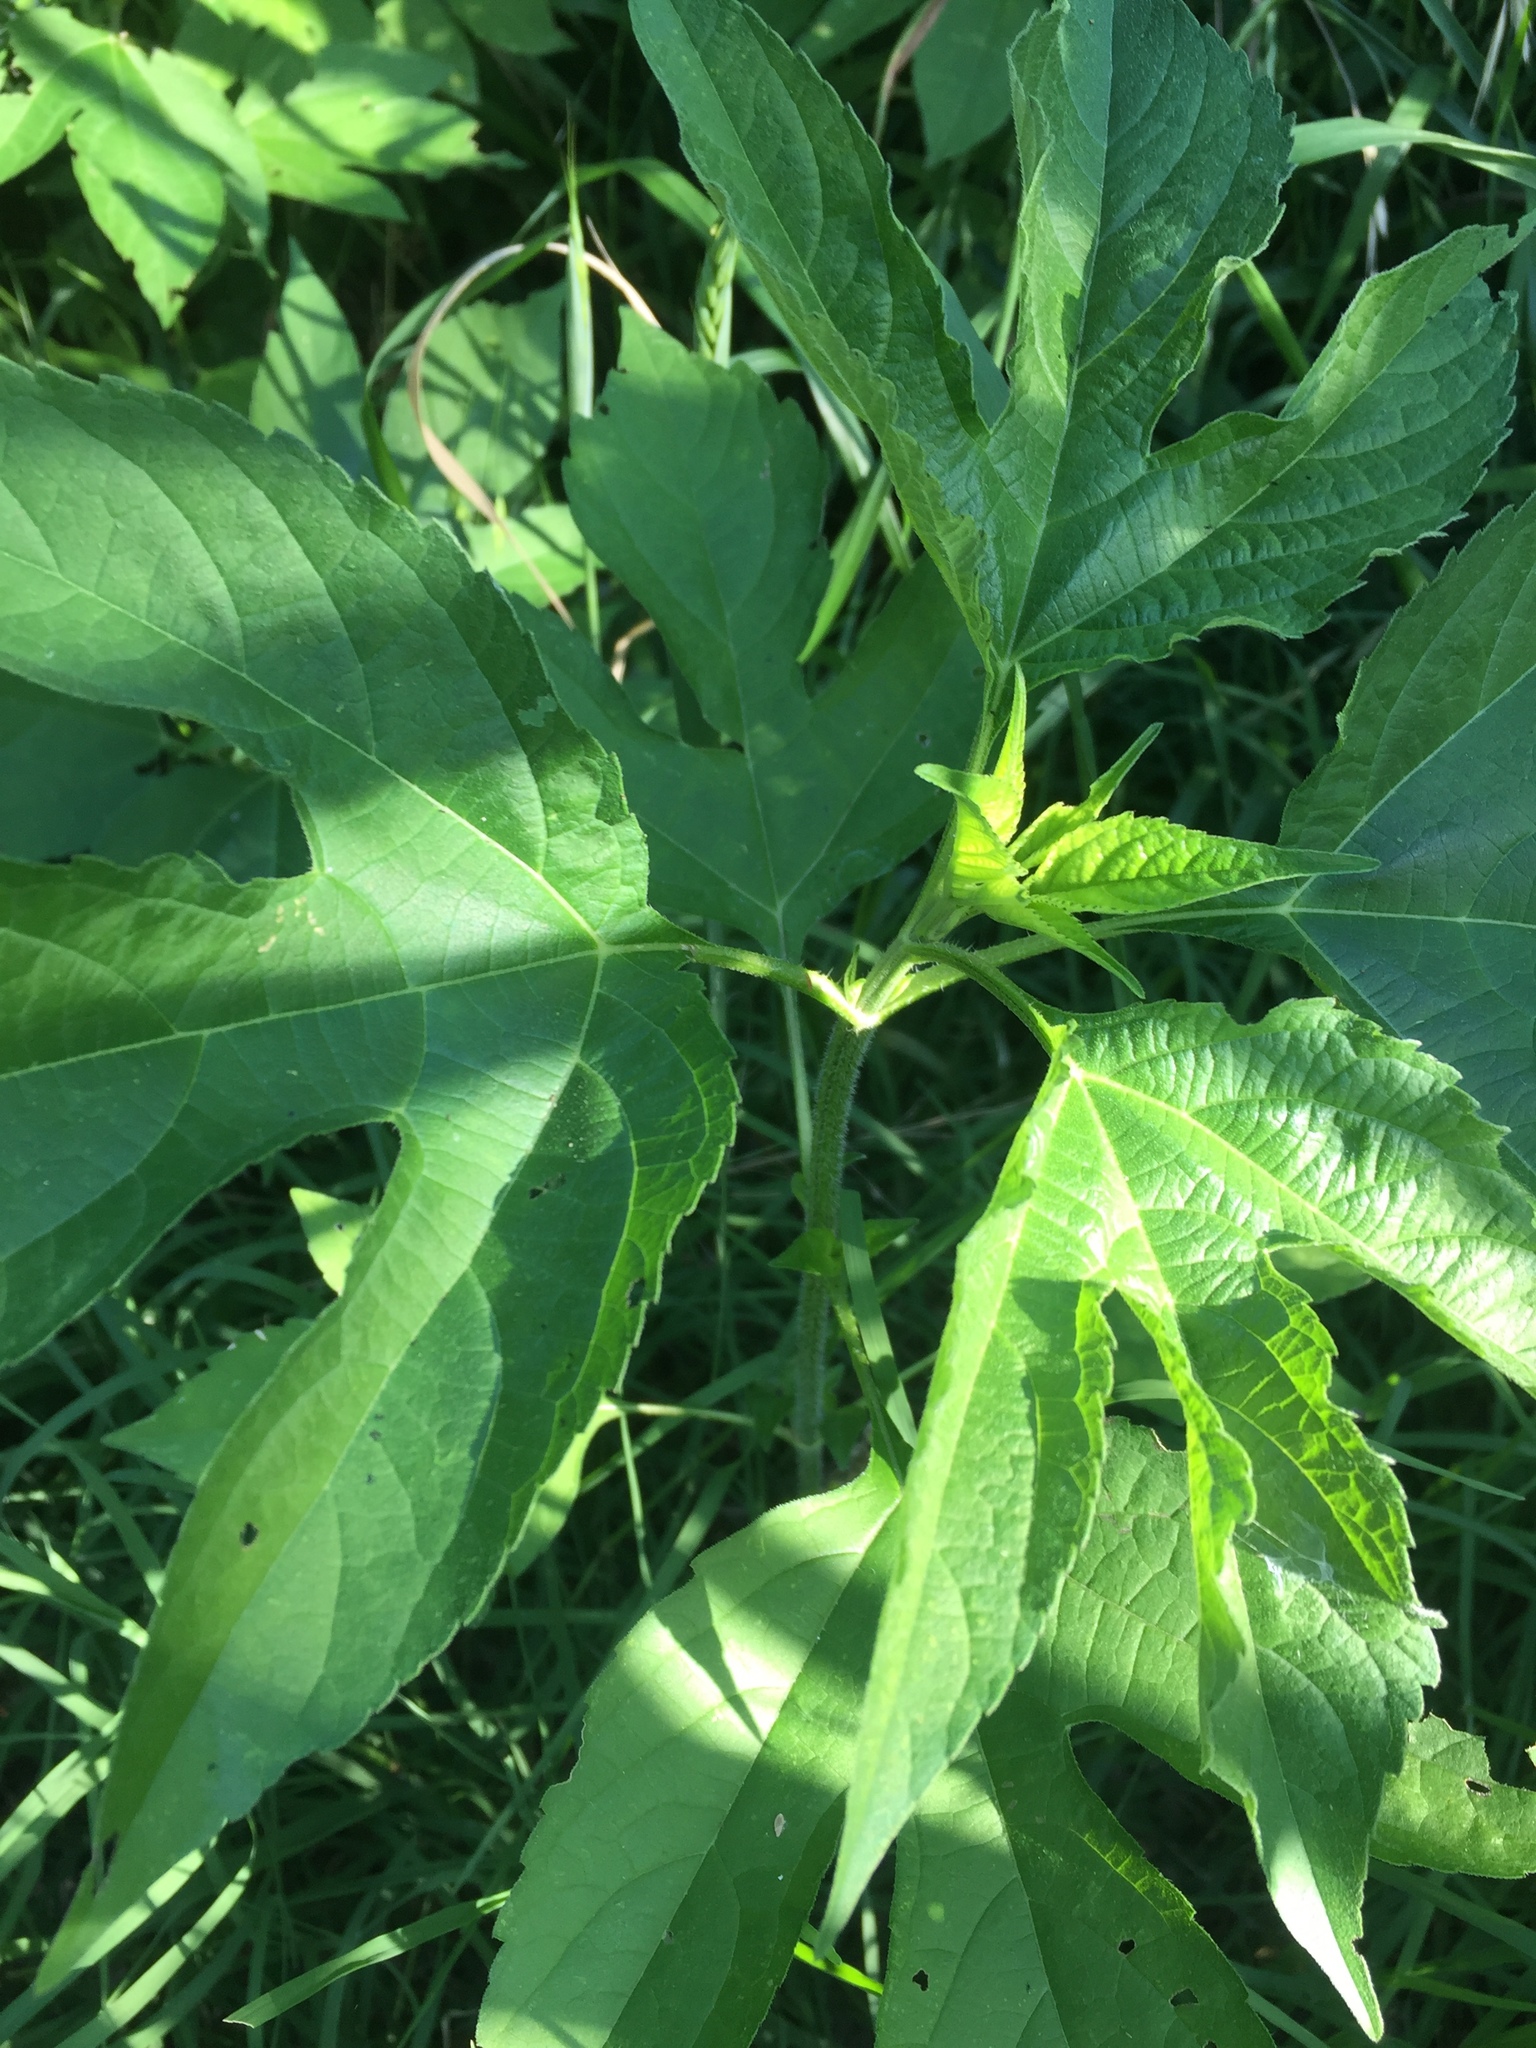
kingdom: Plantae
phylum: Tracheophyta
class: Magnoliopsida
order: Asterales
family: Asteraceae
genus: Ambrosia
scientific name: Ambrosia trifida
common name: Giant ragweed
